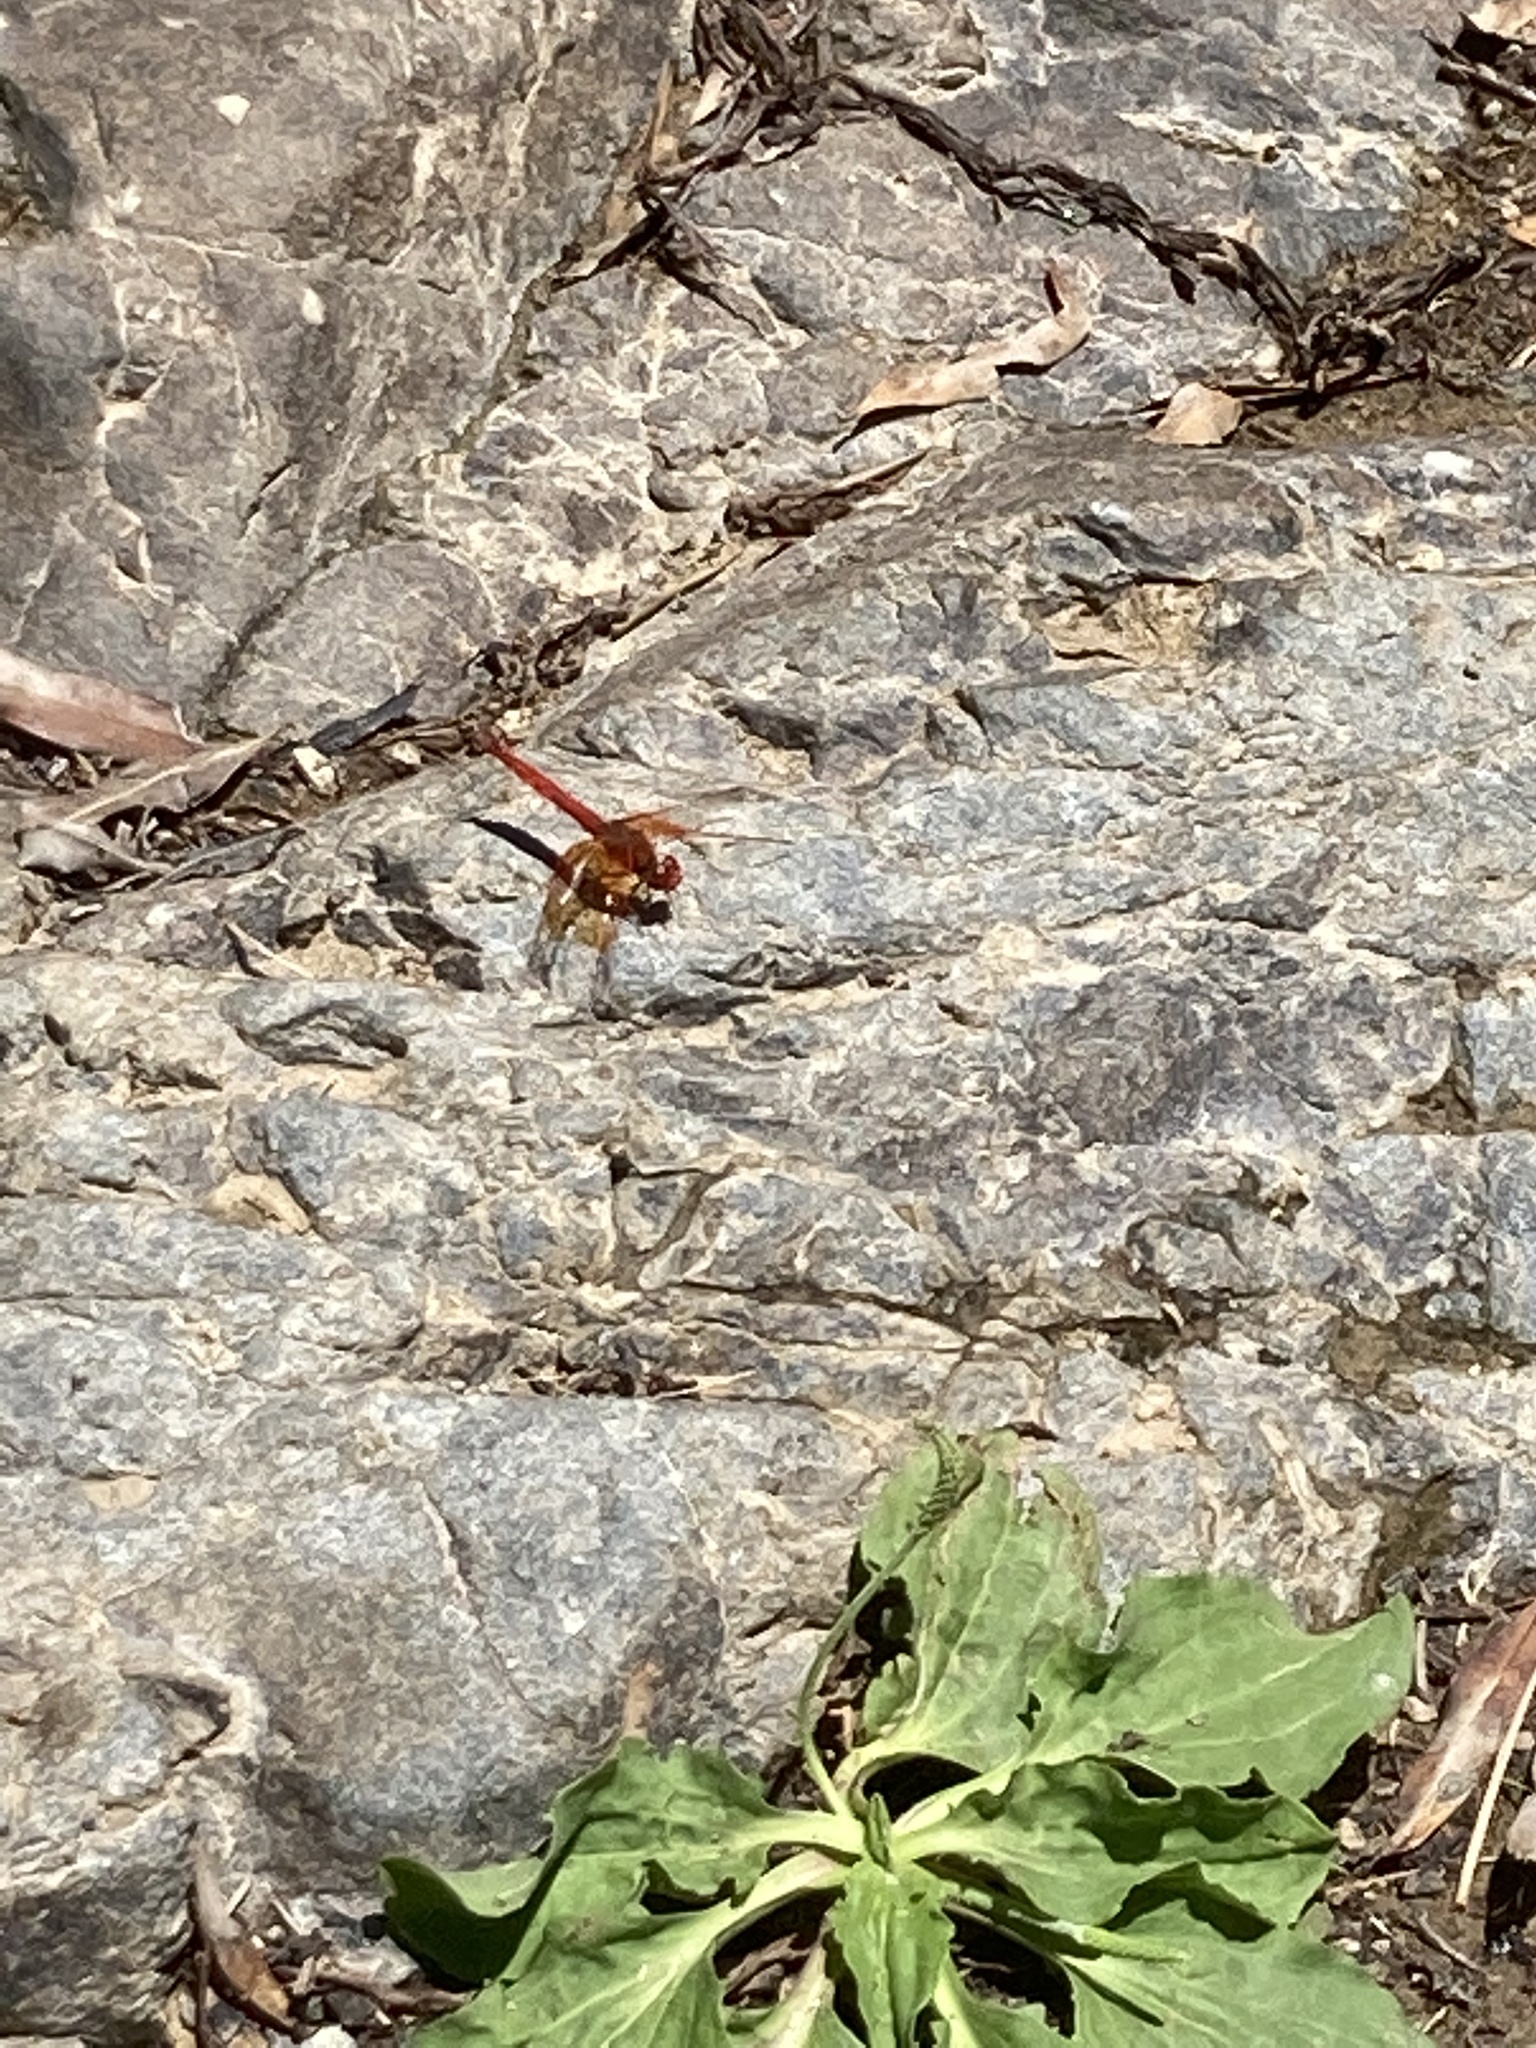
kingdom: Animalia
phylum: Arthropoda
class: Insecta
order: Odonata
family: Libellulidae
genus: Trithemis
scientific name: Trithemis kirbyi
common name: Kirby's dropwing
